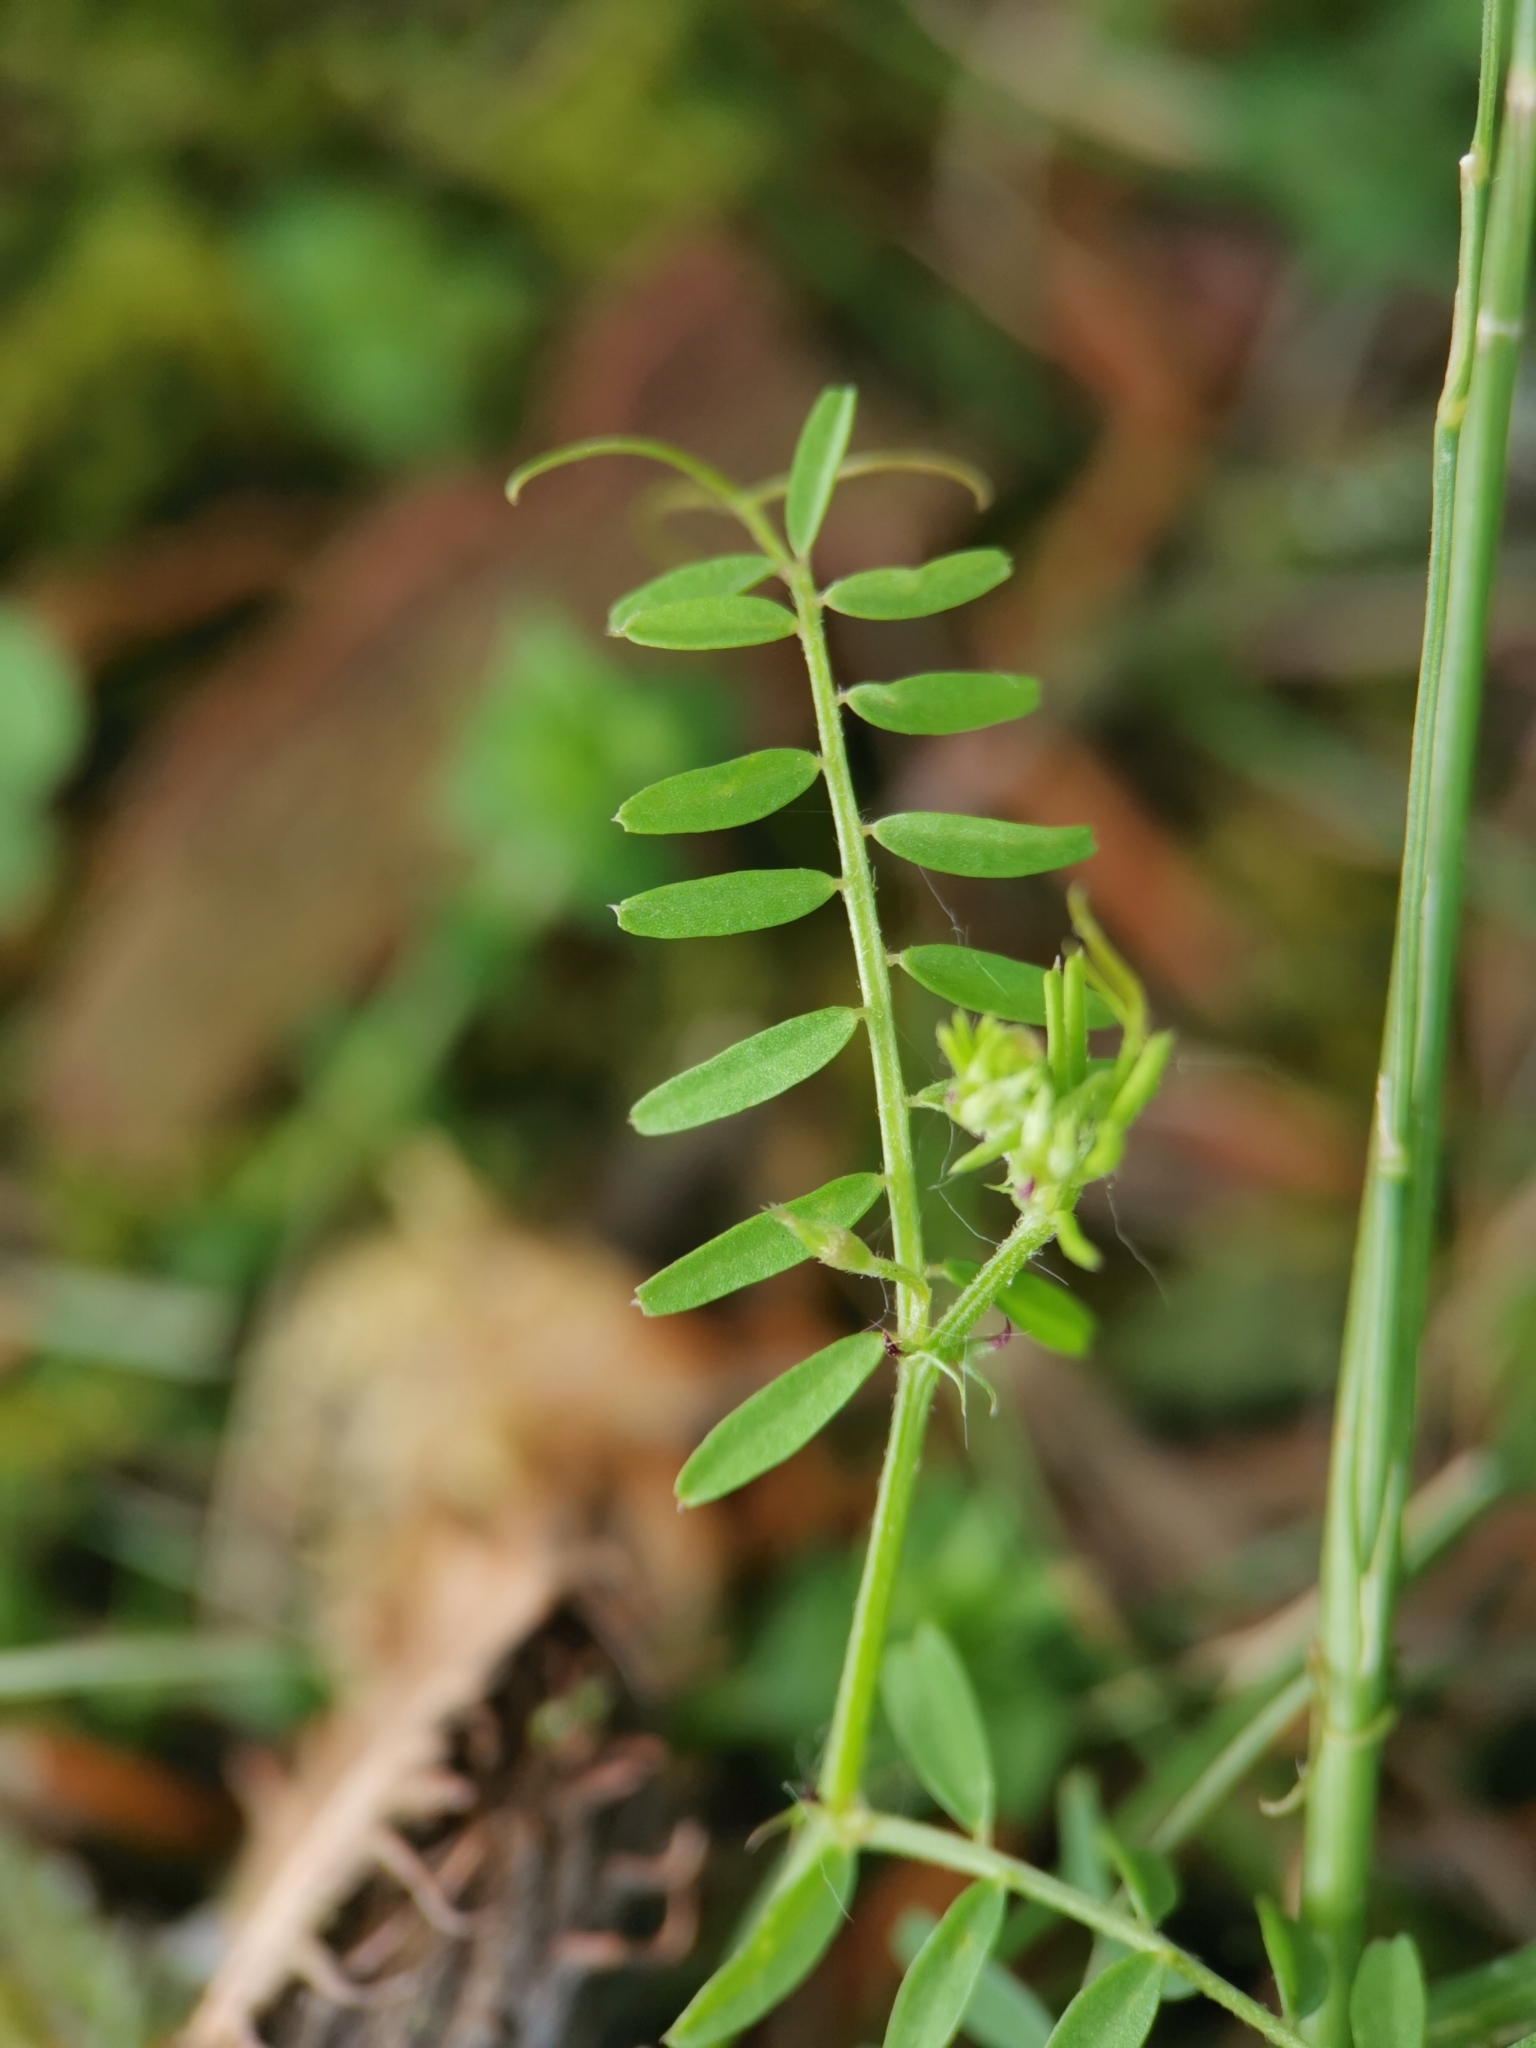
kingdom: Plantae
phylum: Tracheophyta
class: Magnoliopsida
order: Fabales
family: Fabaceae
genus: Vicia
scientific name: Vicia hirsuta
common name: Tiny vetch
